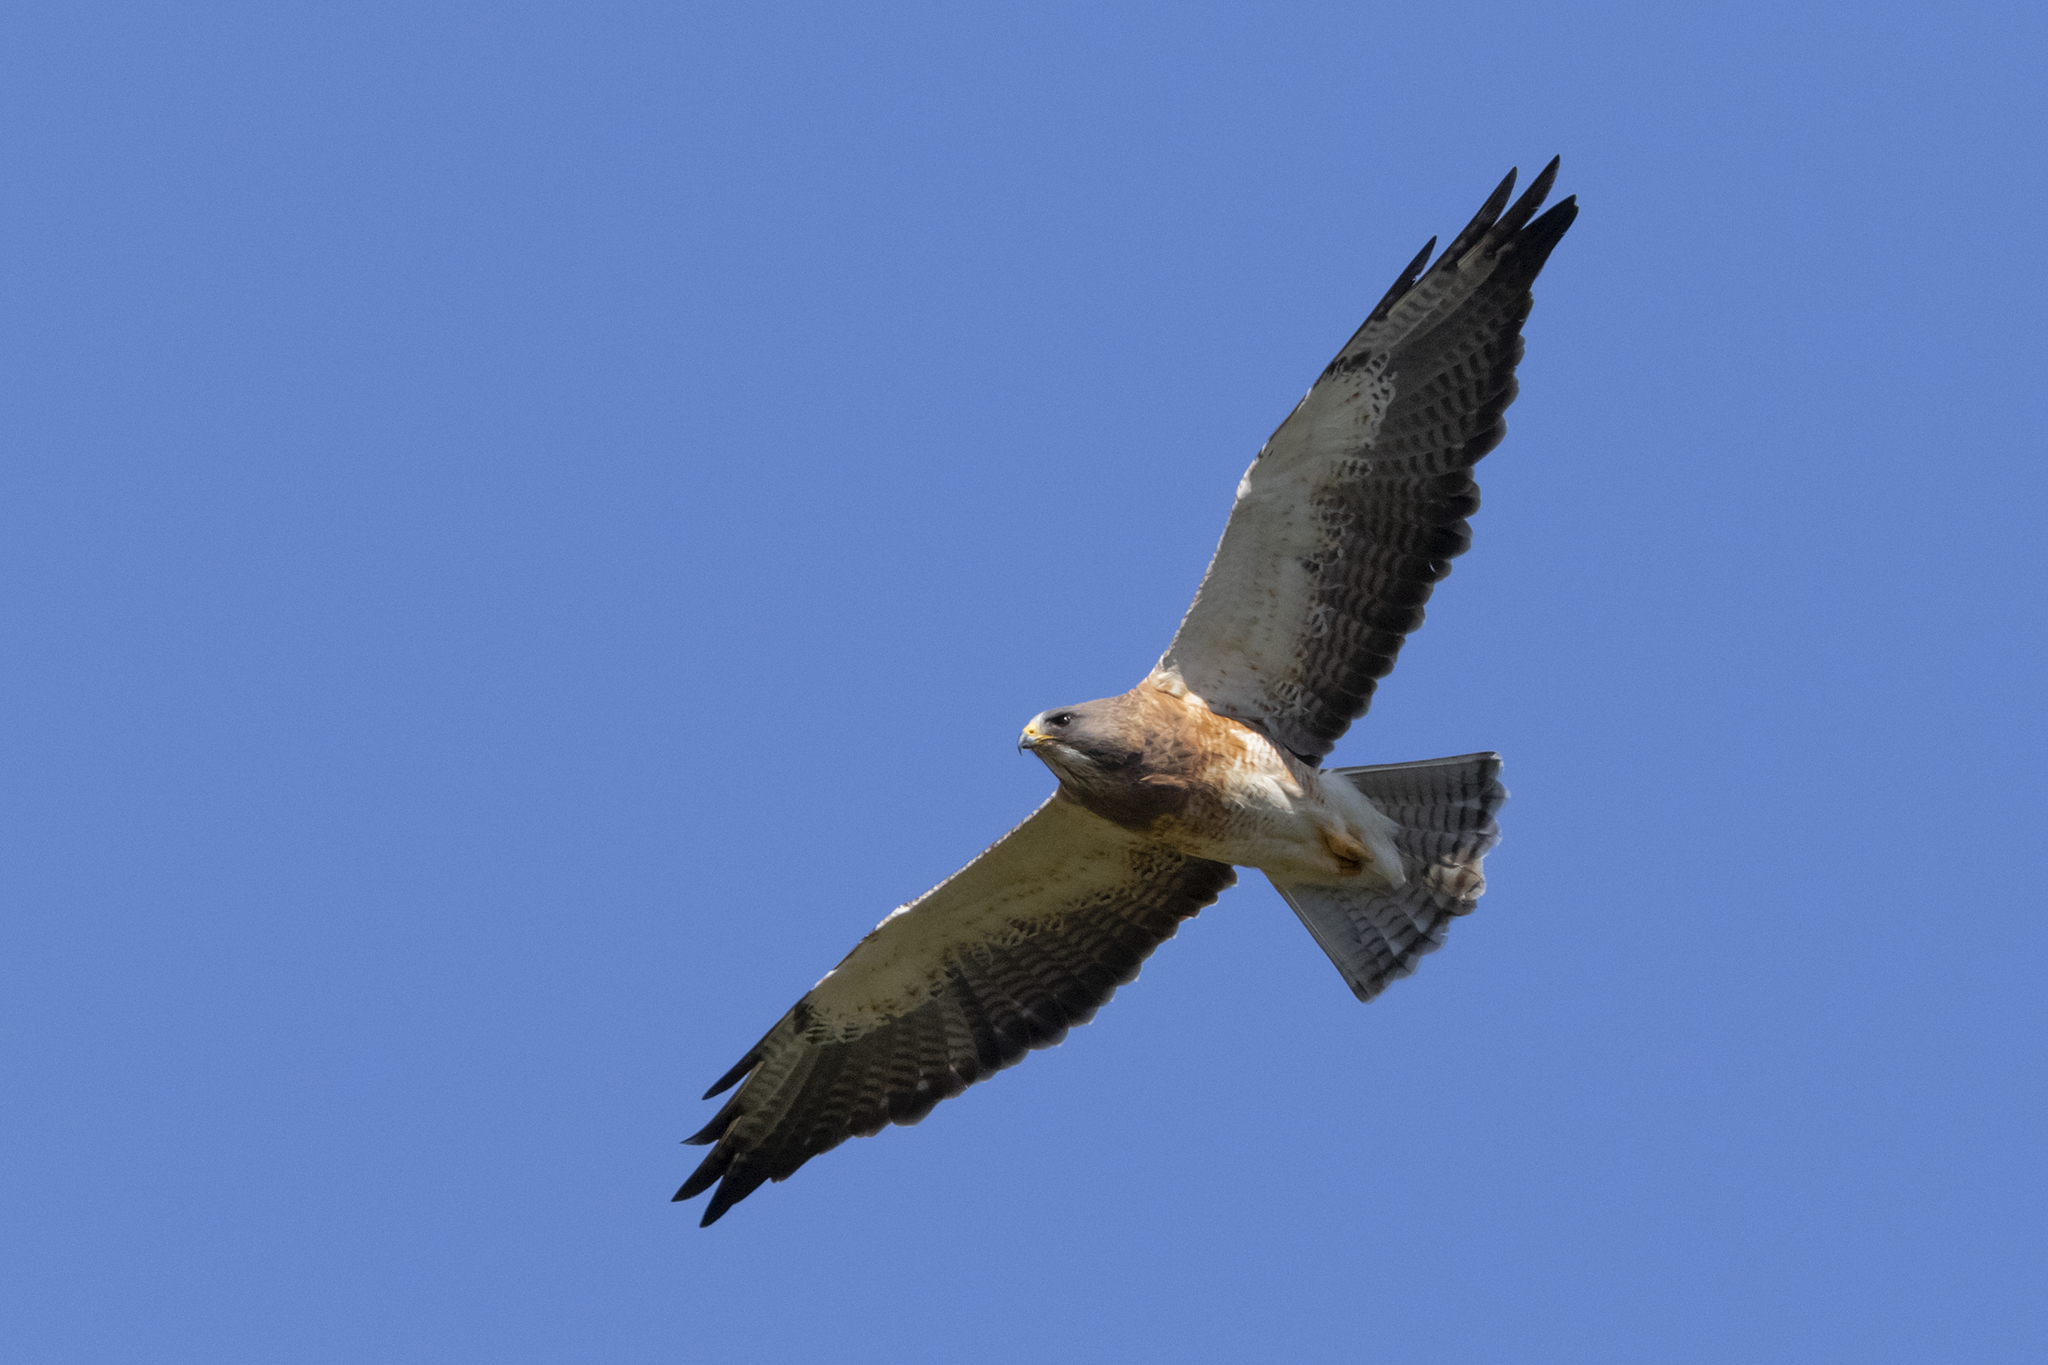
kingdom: Animalia
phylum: Chordata
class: Aves
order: Accipitriformes
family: Accipitridae
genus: Buteo
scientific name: Buteo swainsoni
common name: Swainson's hawk
